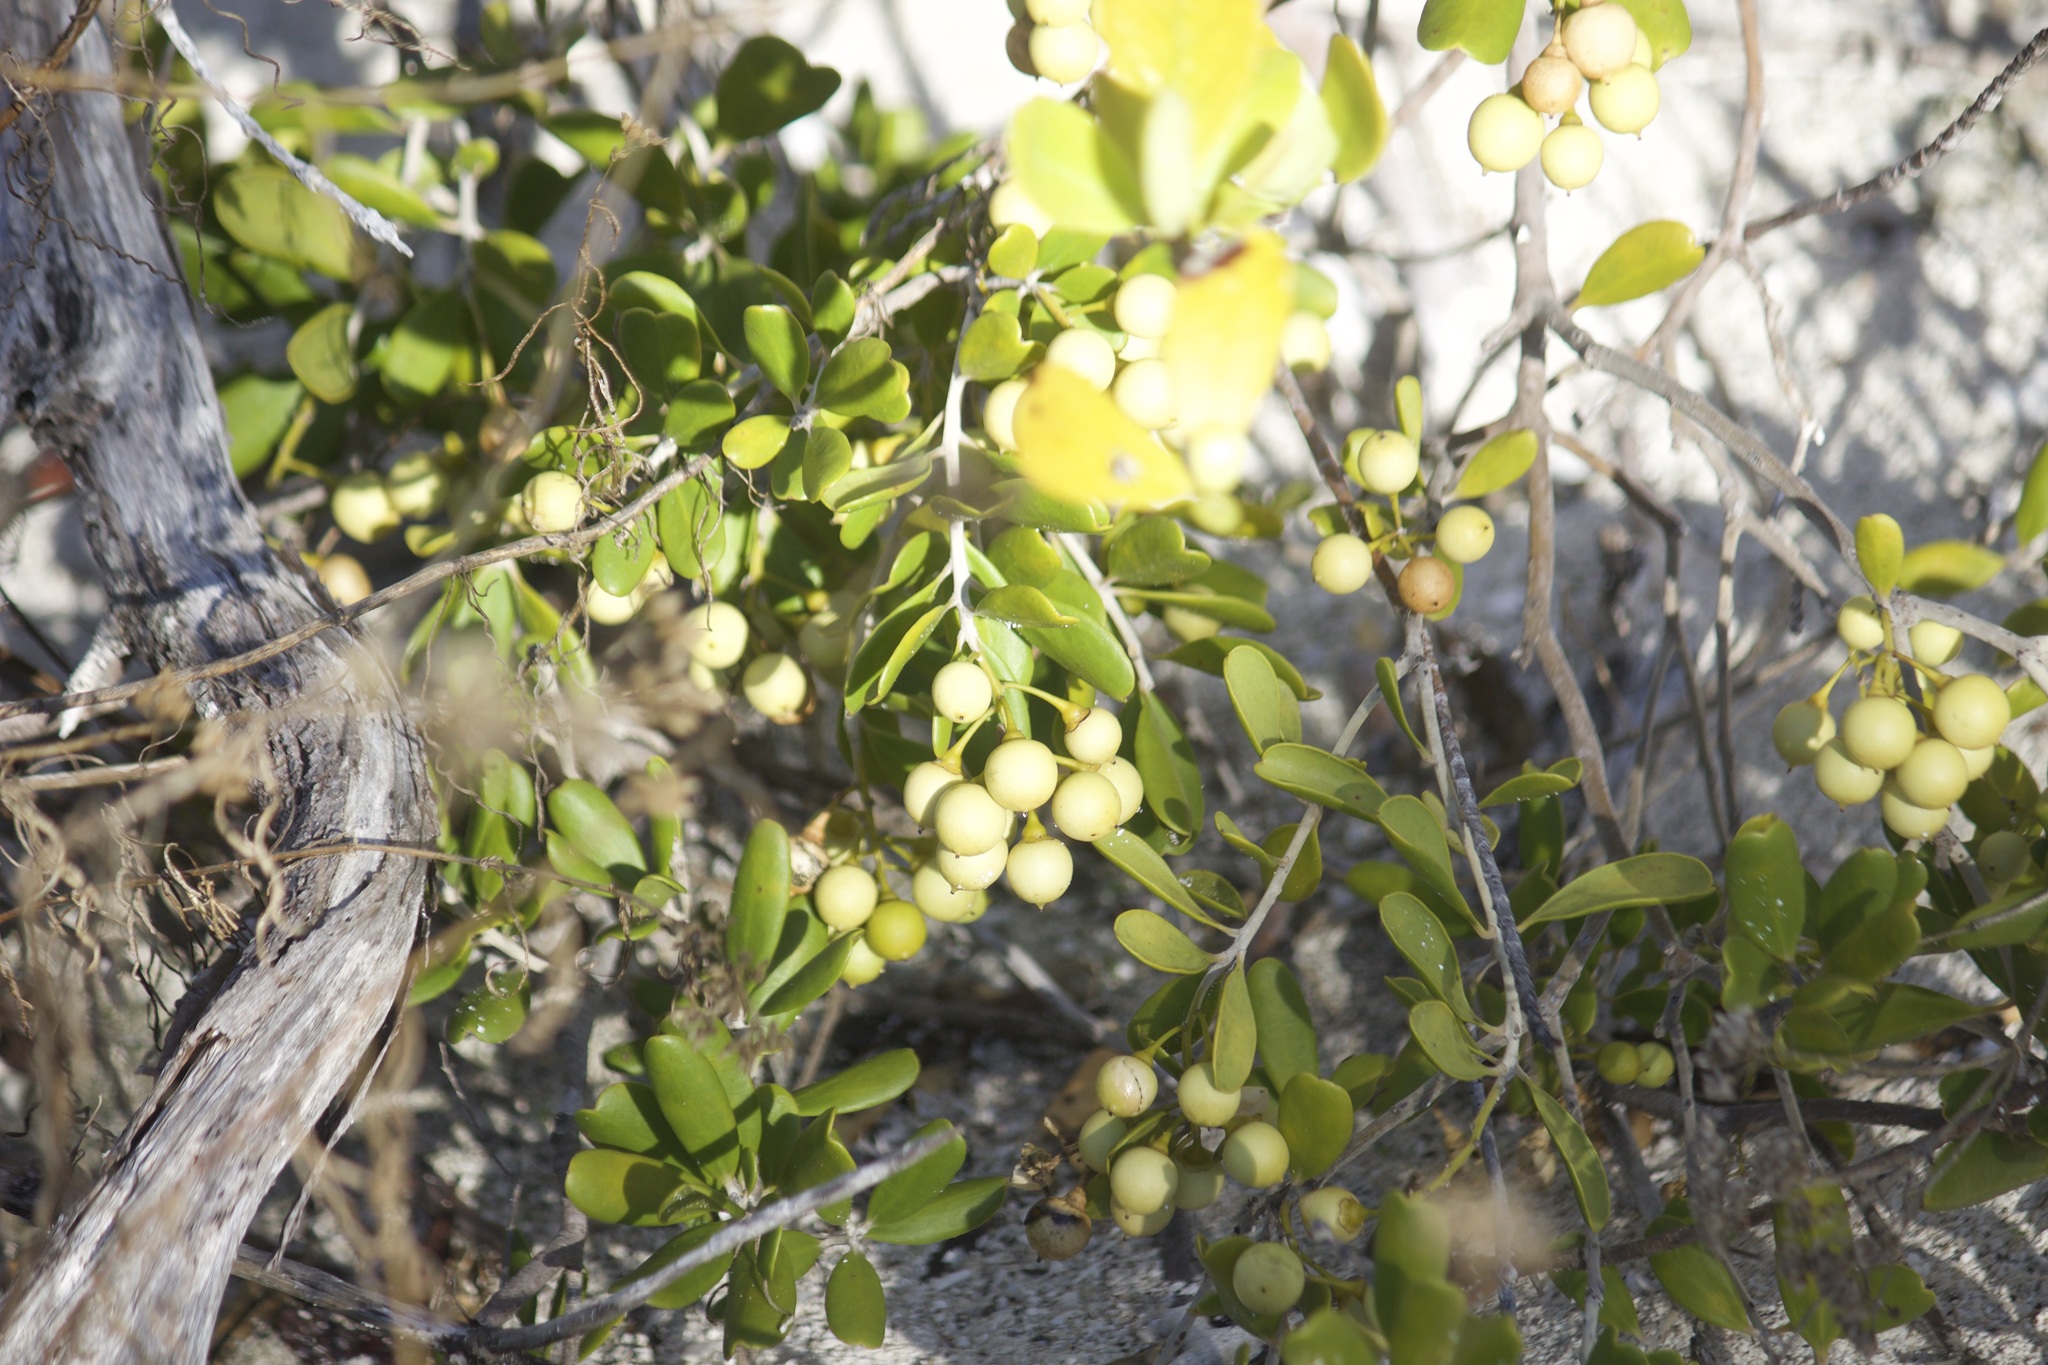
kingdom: Plantae
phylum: Tracheophyta
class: Magnoliopsida
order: Ericales
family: Primulaceae
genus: Jacquinia
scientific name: Jacquinia keyensis
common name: Joebush
